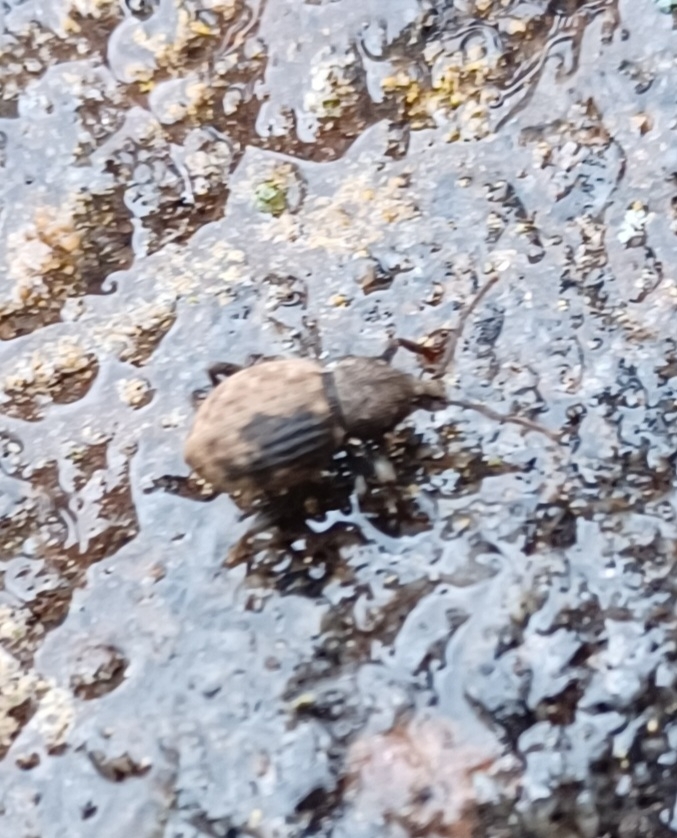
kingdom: Animalia
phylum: Arthropoda
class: Insecta
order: Coleoptera
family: Curculionidae
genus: Otiorhynchus
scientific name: Otiorhynchus raucus
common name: Weevil
